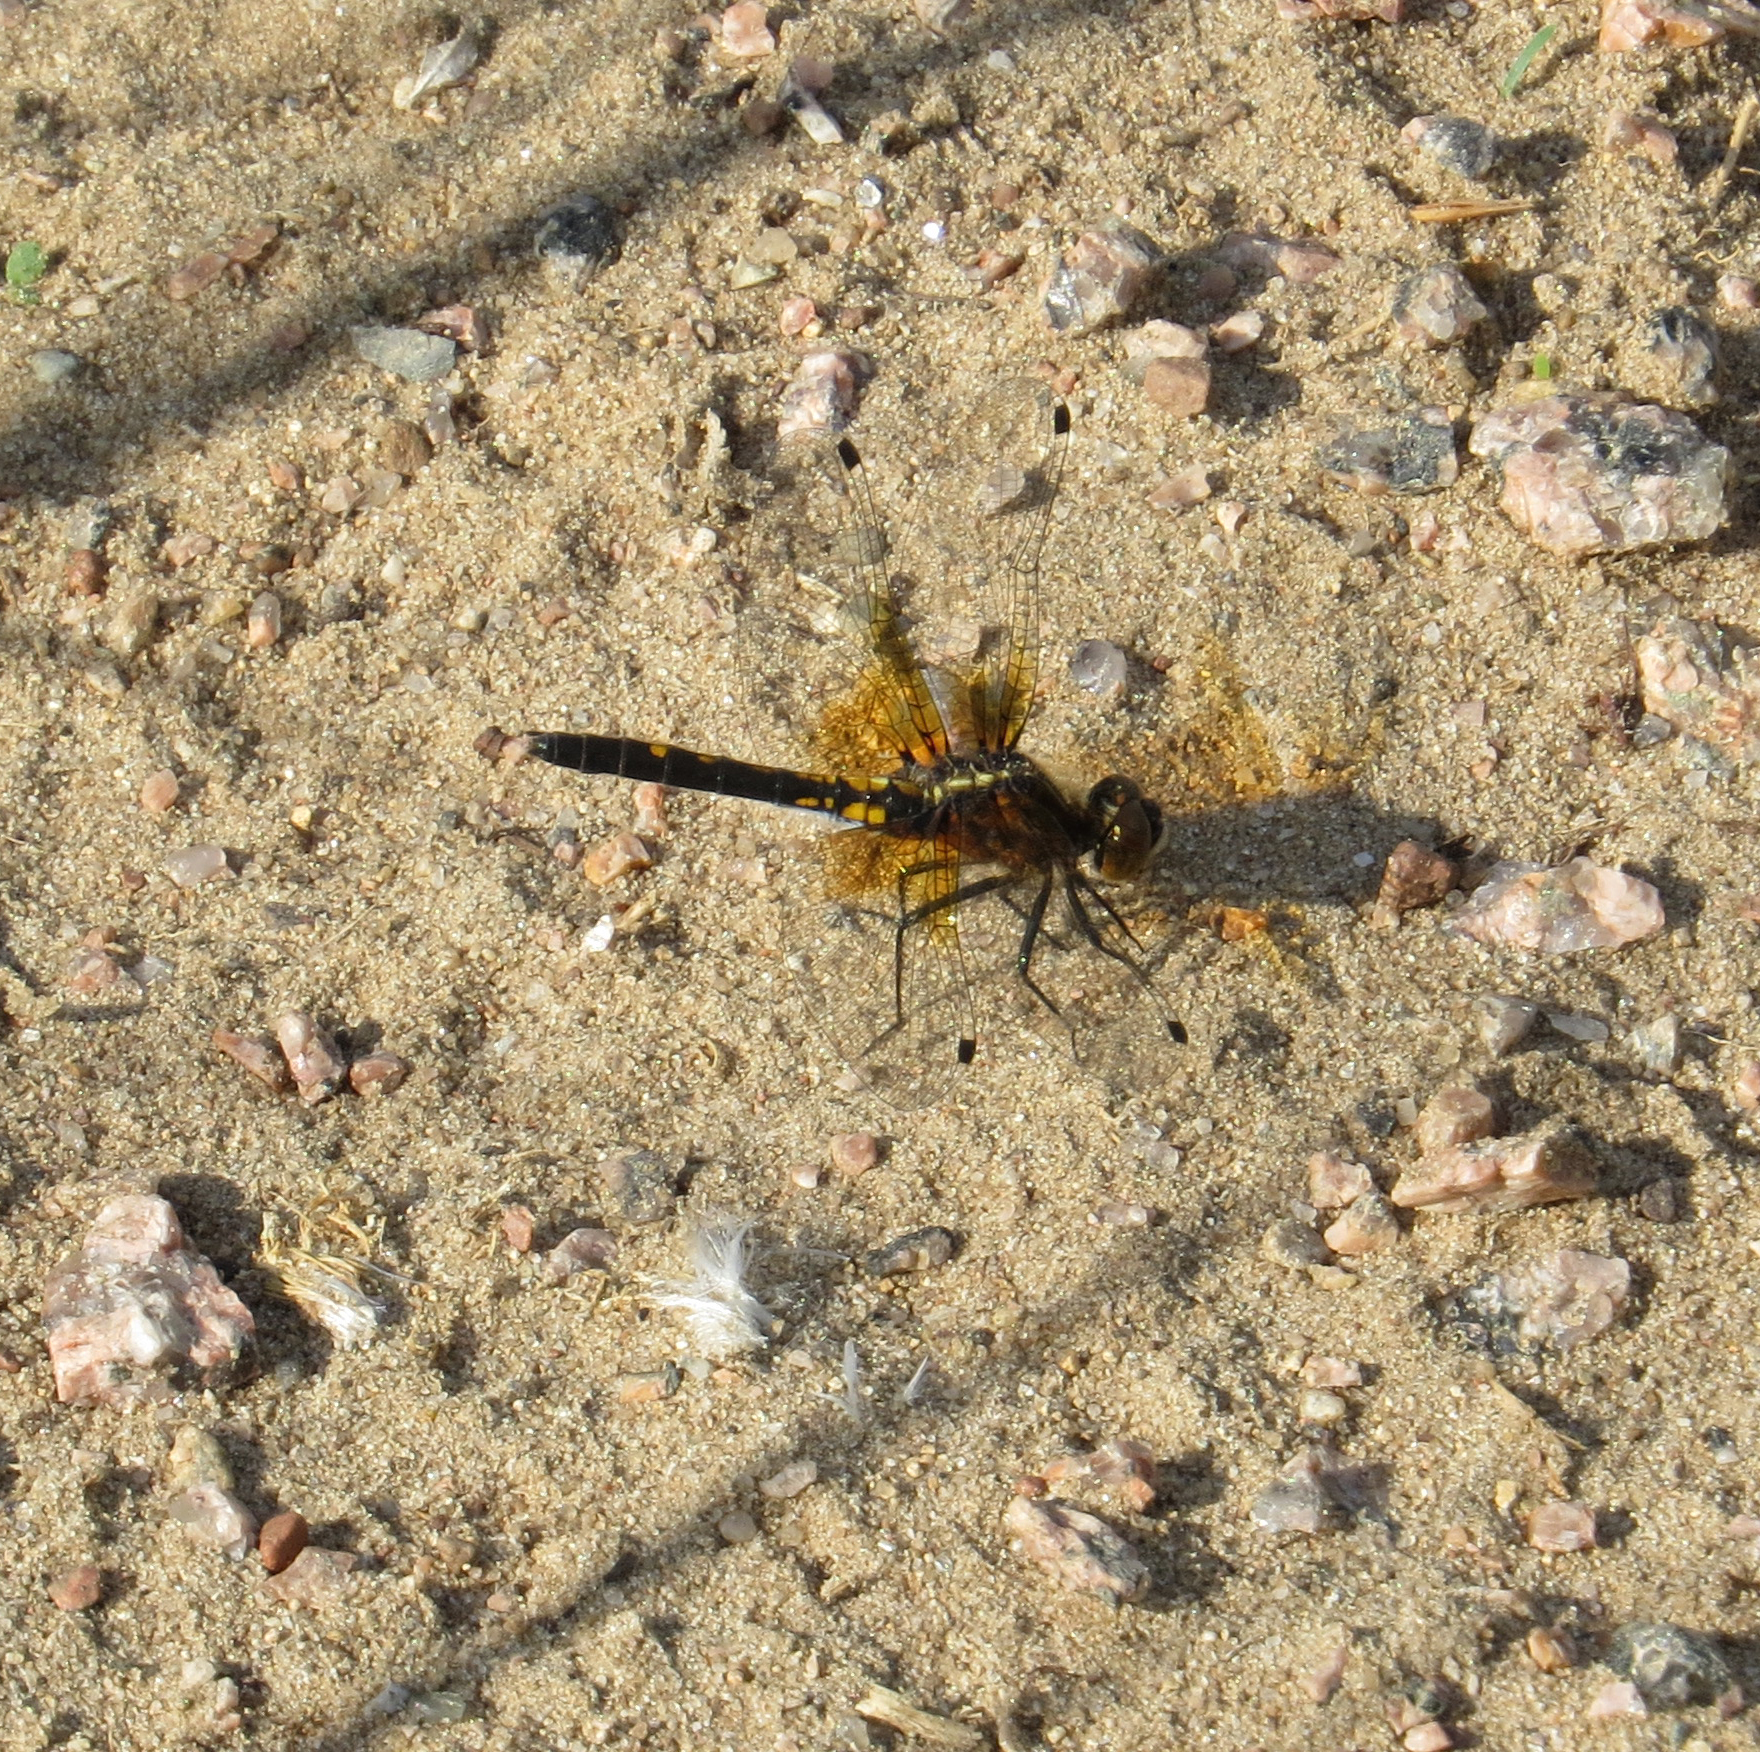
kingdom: Animalia
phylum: Arthropoda
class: Insecta
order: Odonata
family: Libellulidae
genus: Leucorrhinia
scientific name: Leucorrhinia intacta
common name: Dot-tailed whiteface
